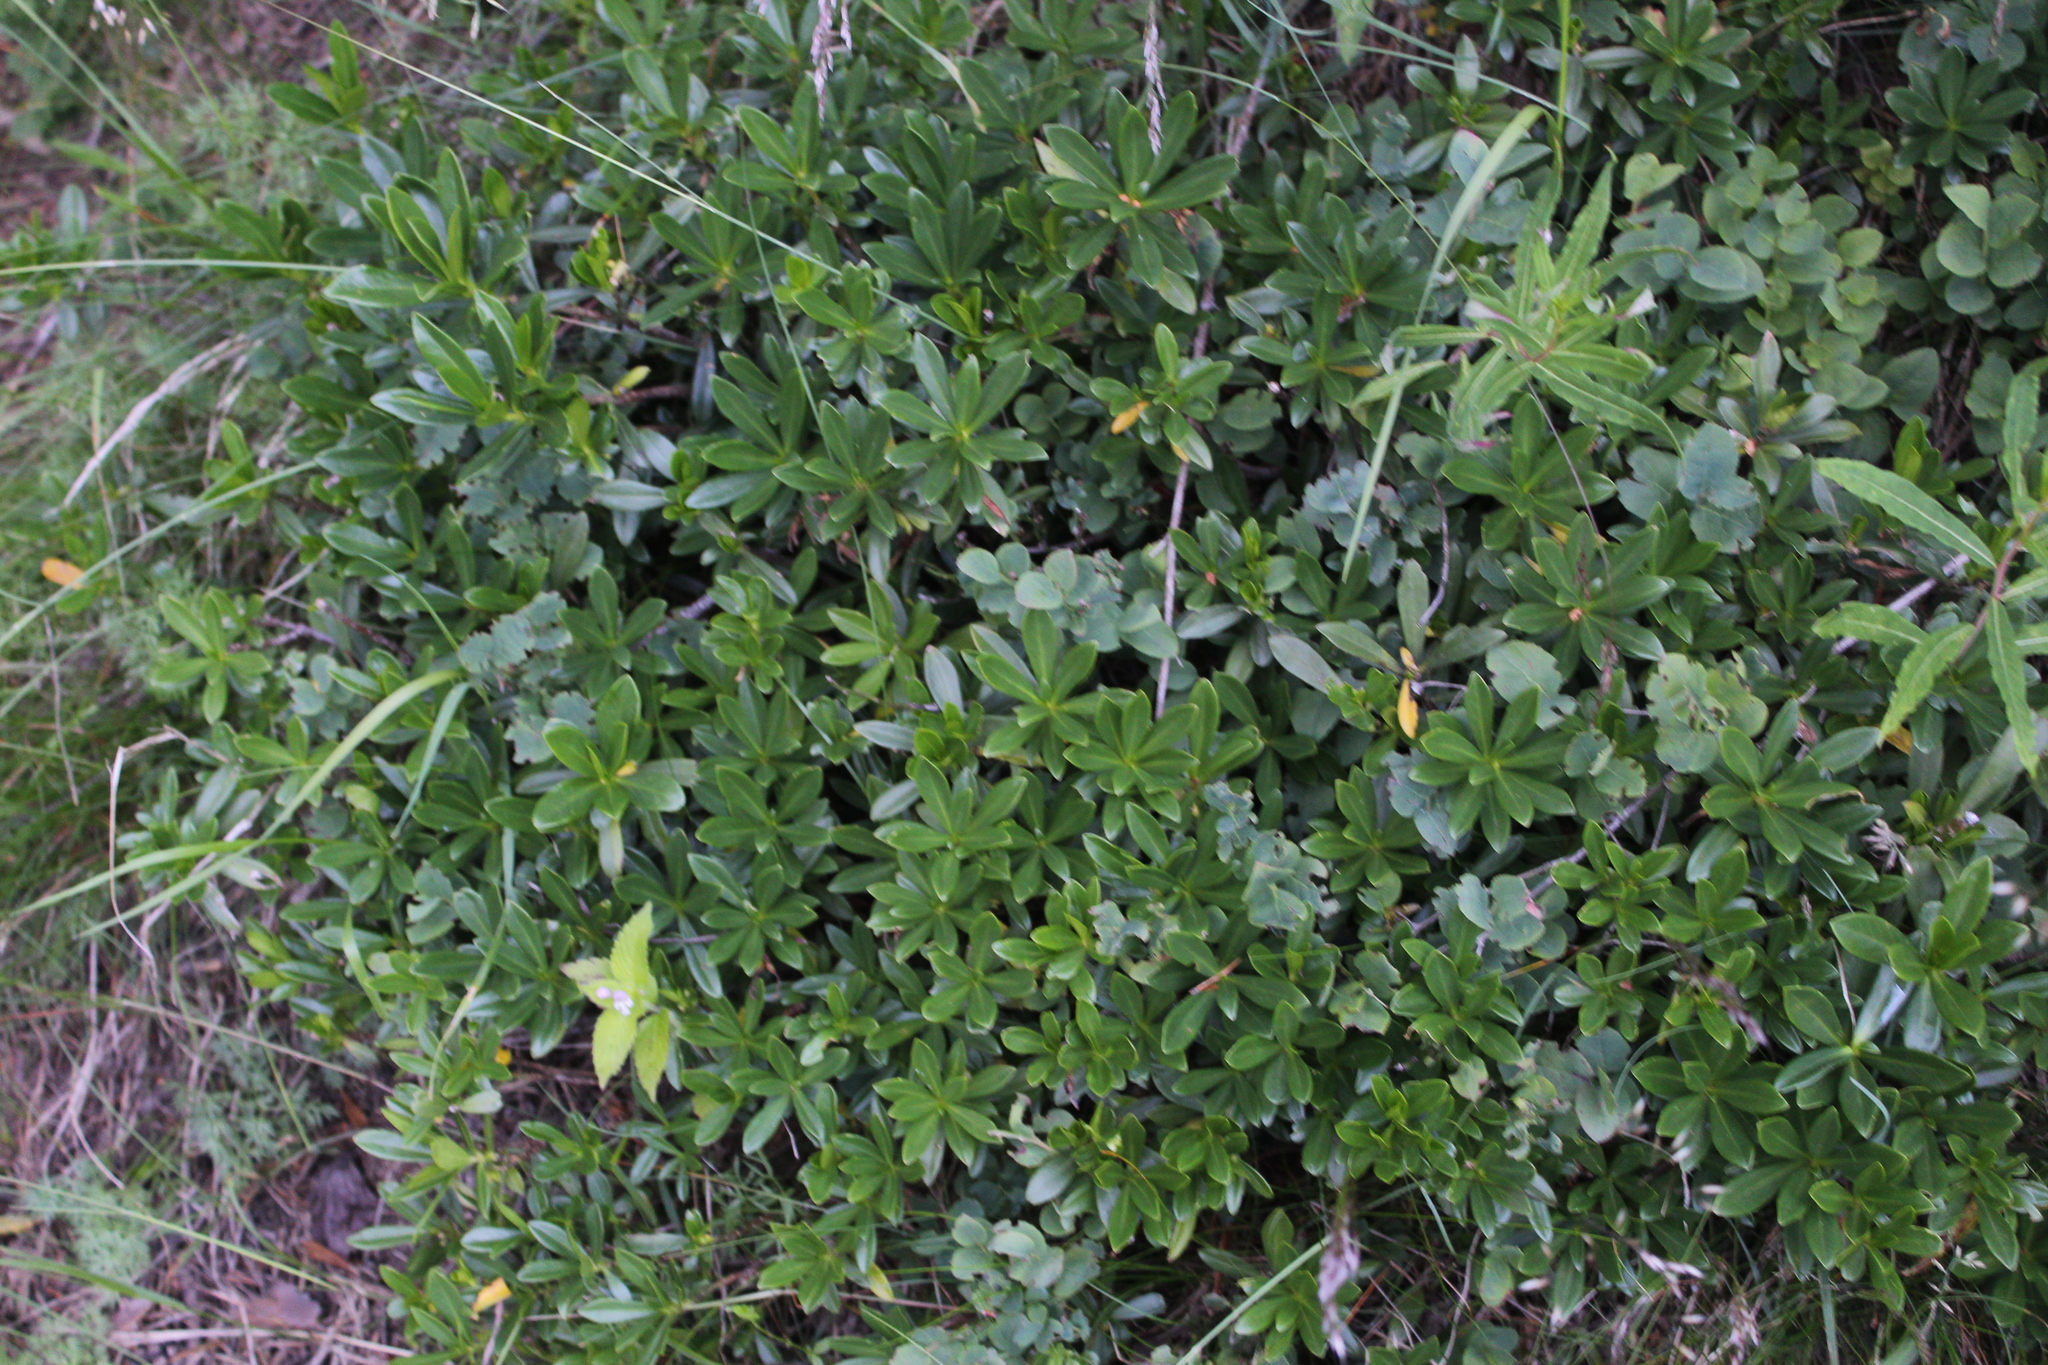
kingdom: Plantae
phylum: Tracheophyta
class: Magnoliopsida
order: Malvales
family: Thymelaeaceae
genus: Daphne
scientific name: Daphne glomerata
